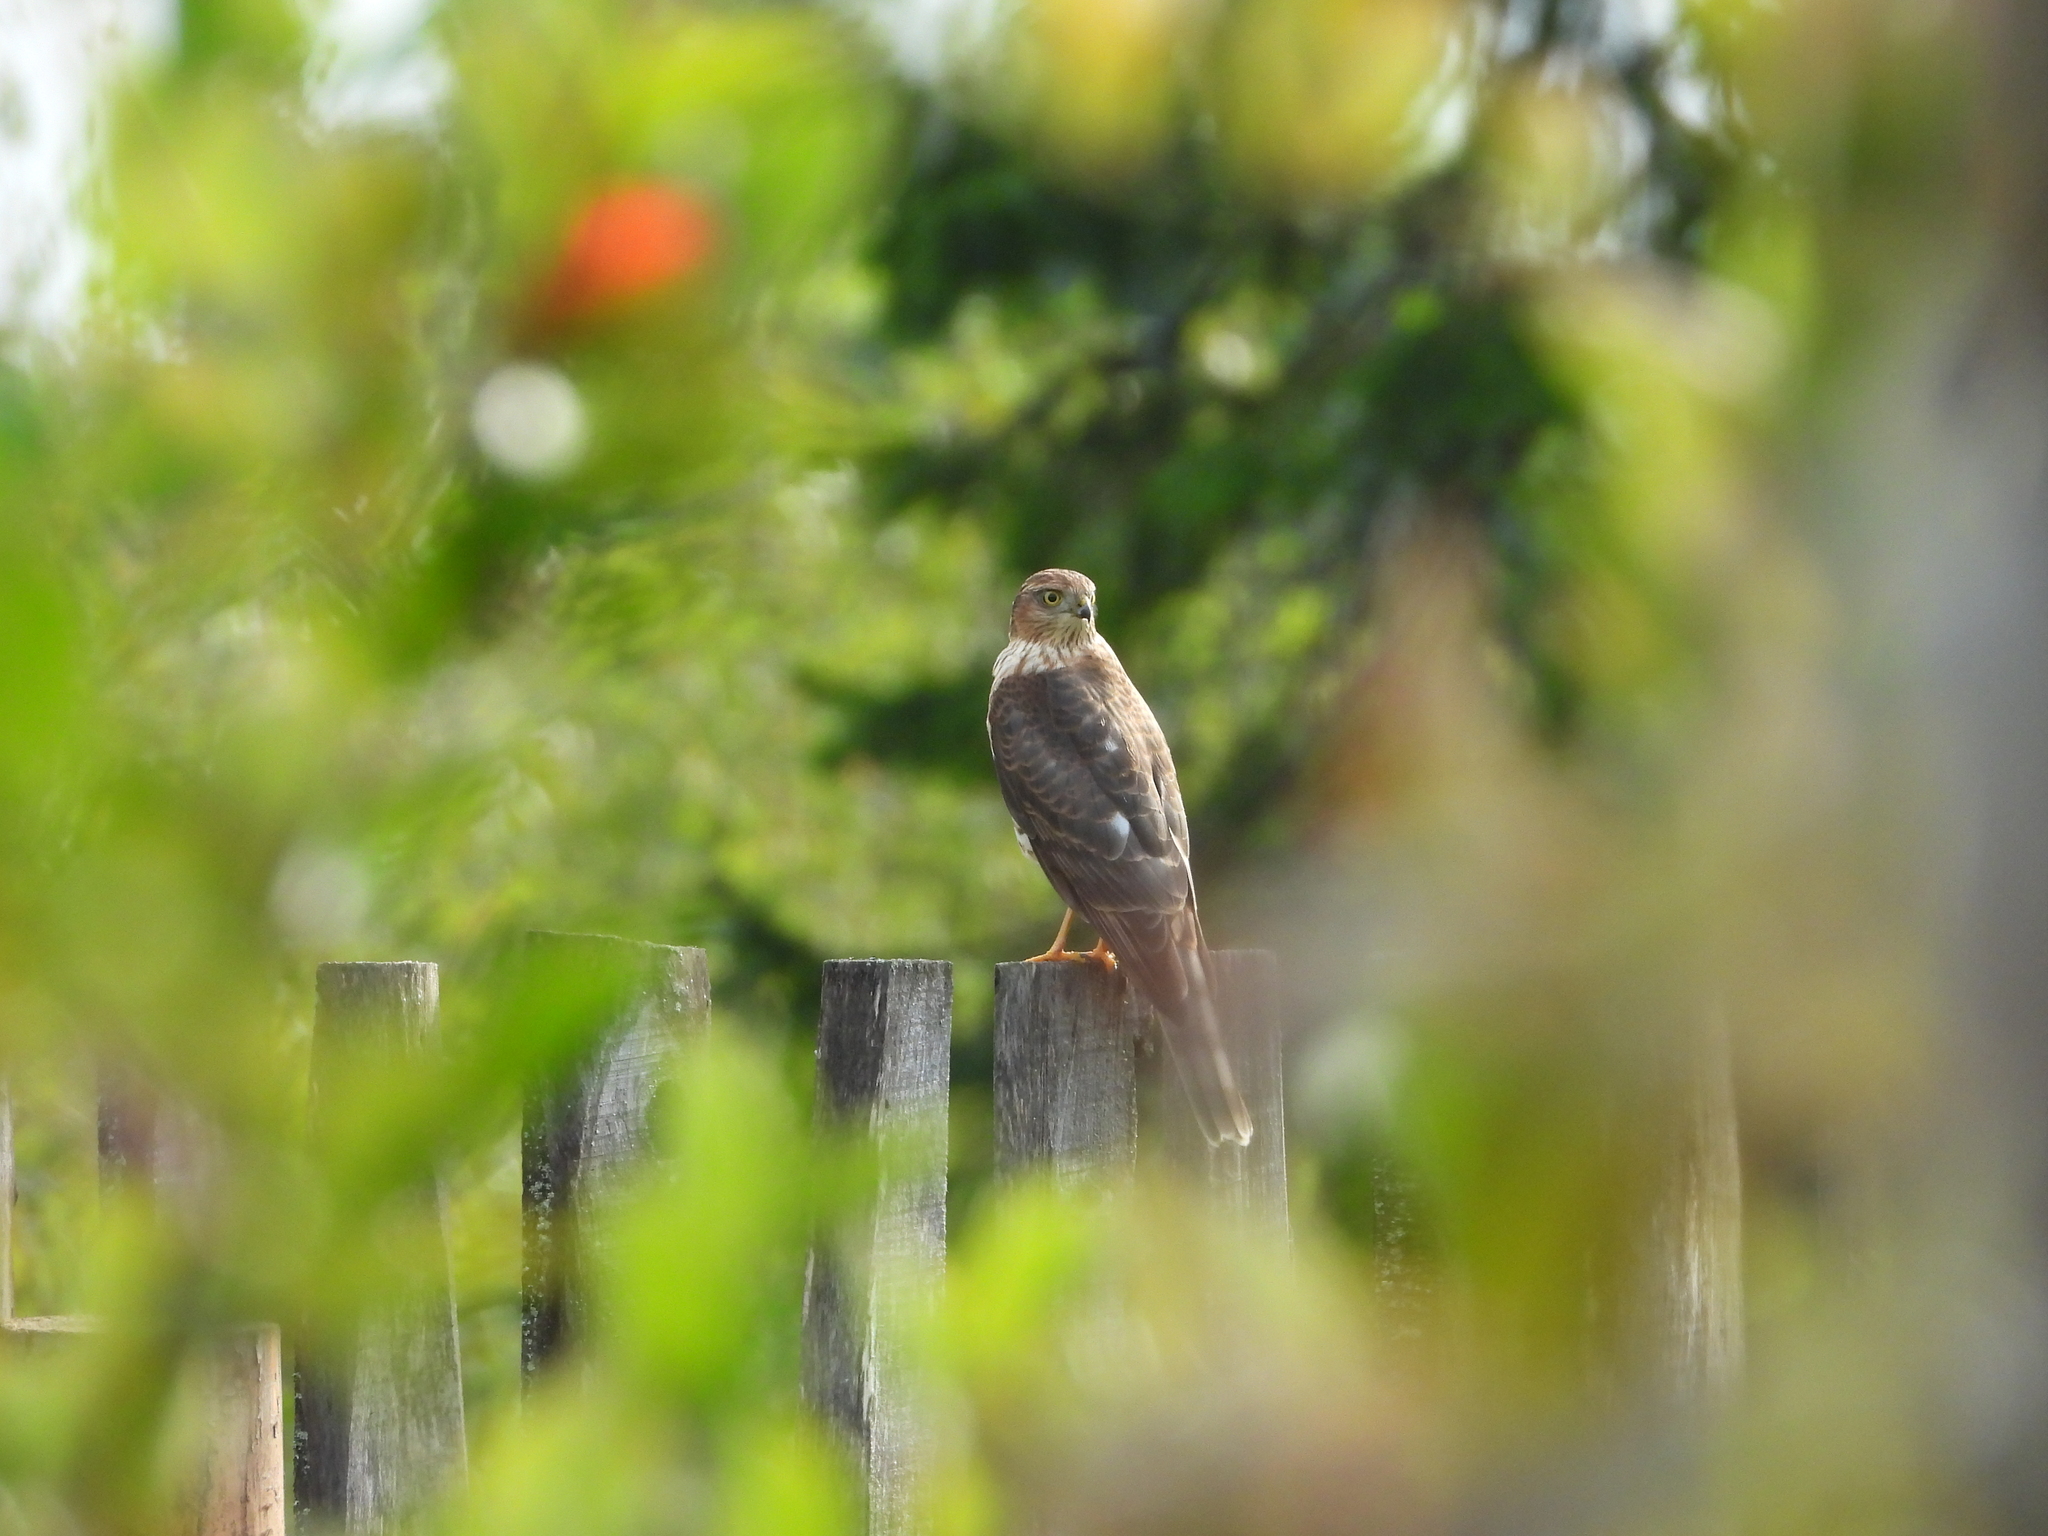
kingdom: Animalia
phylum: Chordata
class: Aves
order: Accipitriformes
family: Accipitridae
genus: Accipiter
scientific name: Accipiter nisus
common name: Eurasian sparrowhawk
